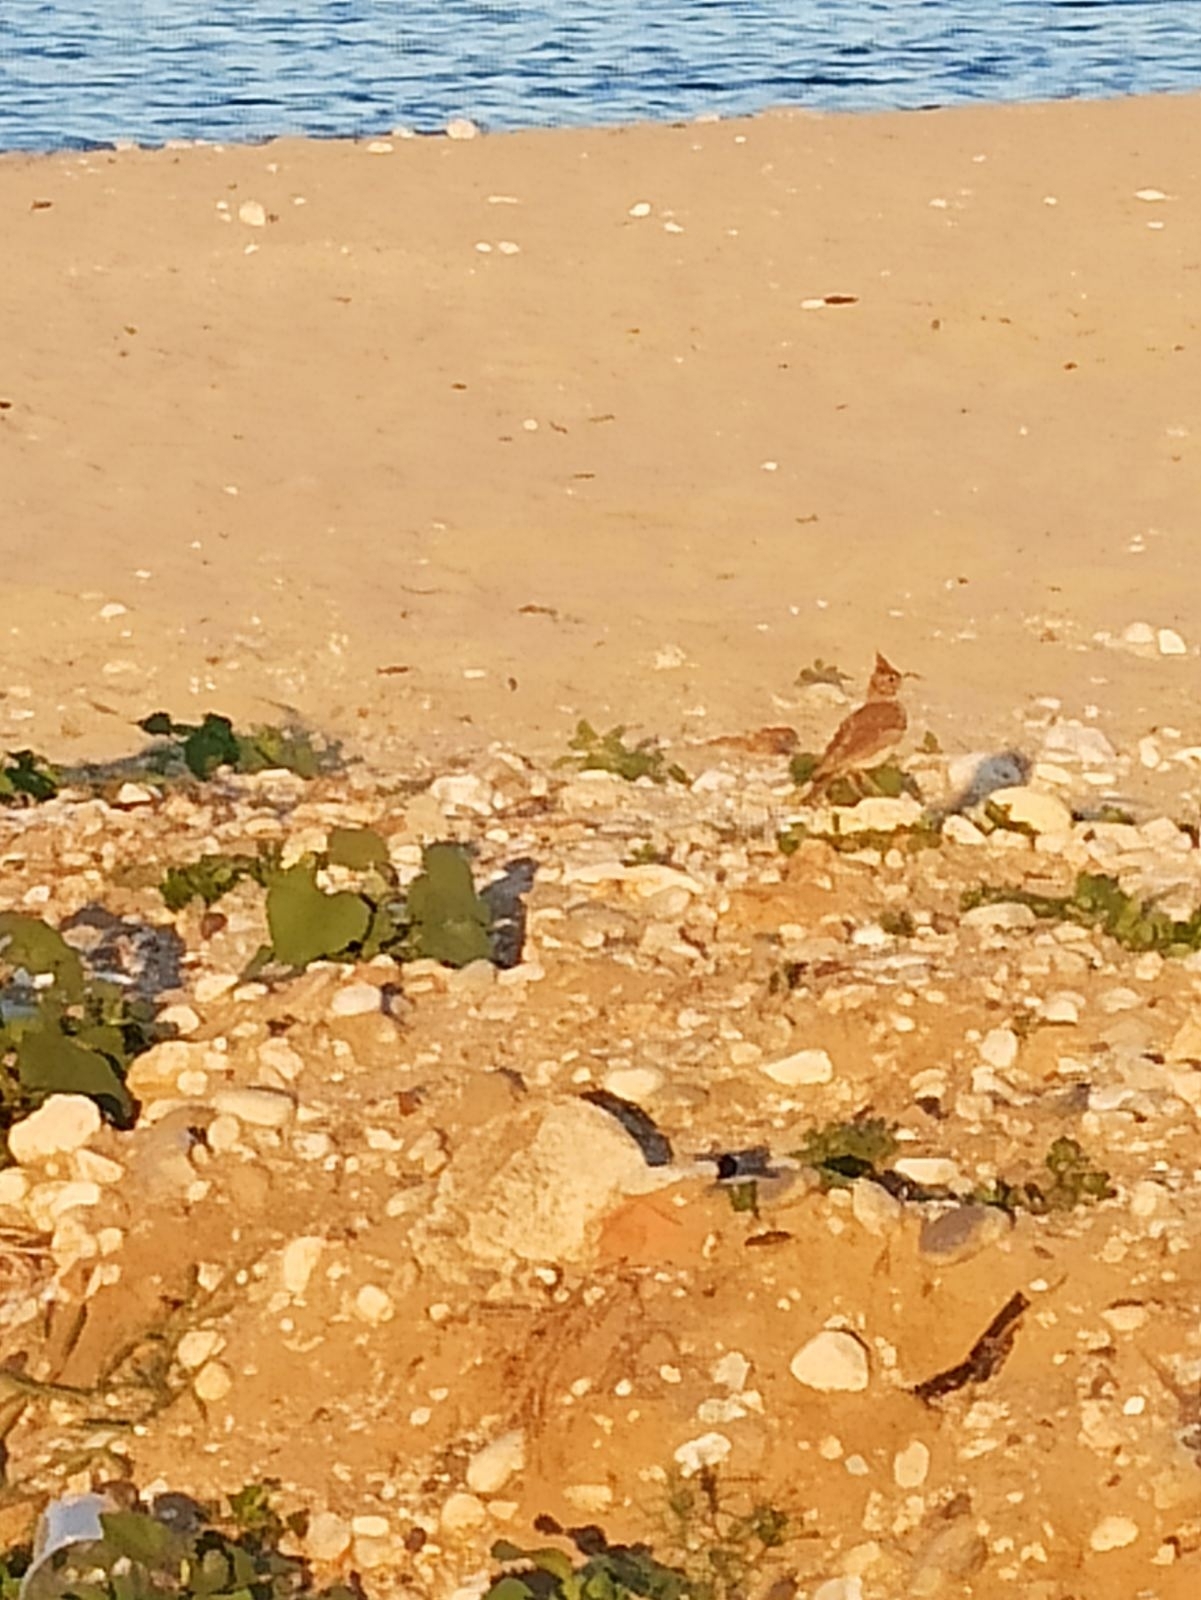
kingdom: Animalia
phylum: Chordata
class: Aves
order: Passeriformes
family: Alaudidae
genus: Galerida
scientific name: Galerida cristata
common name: Crested lark
